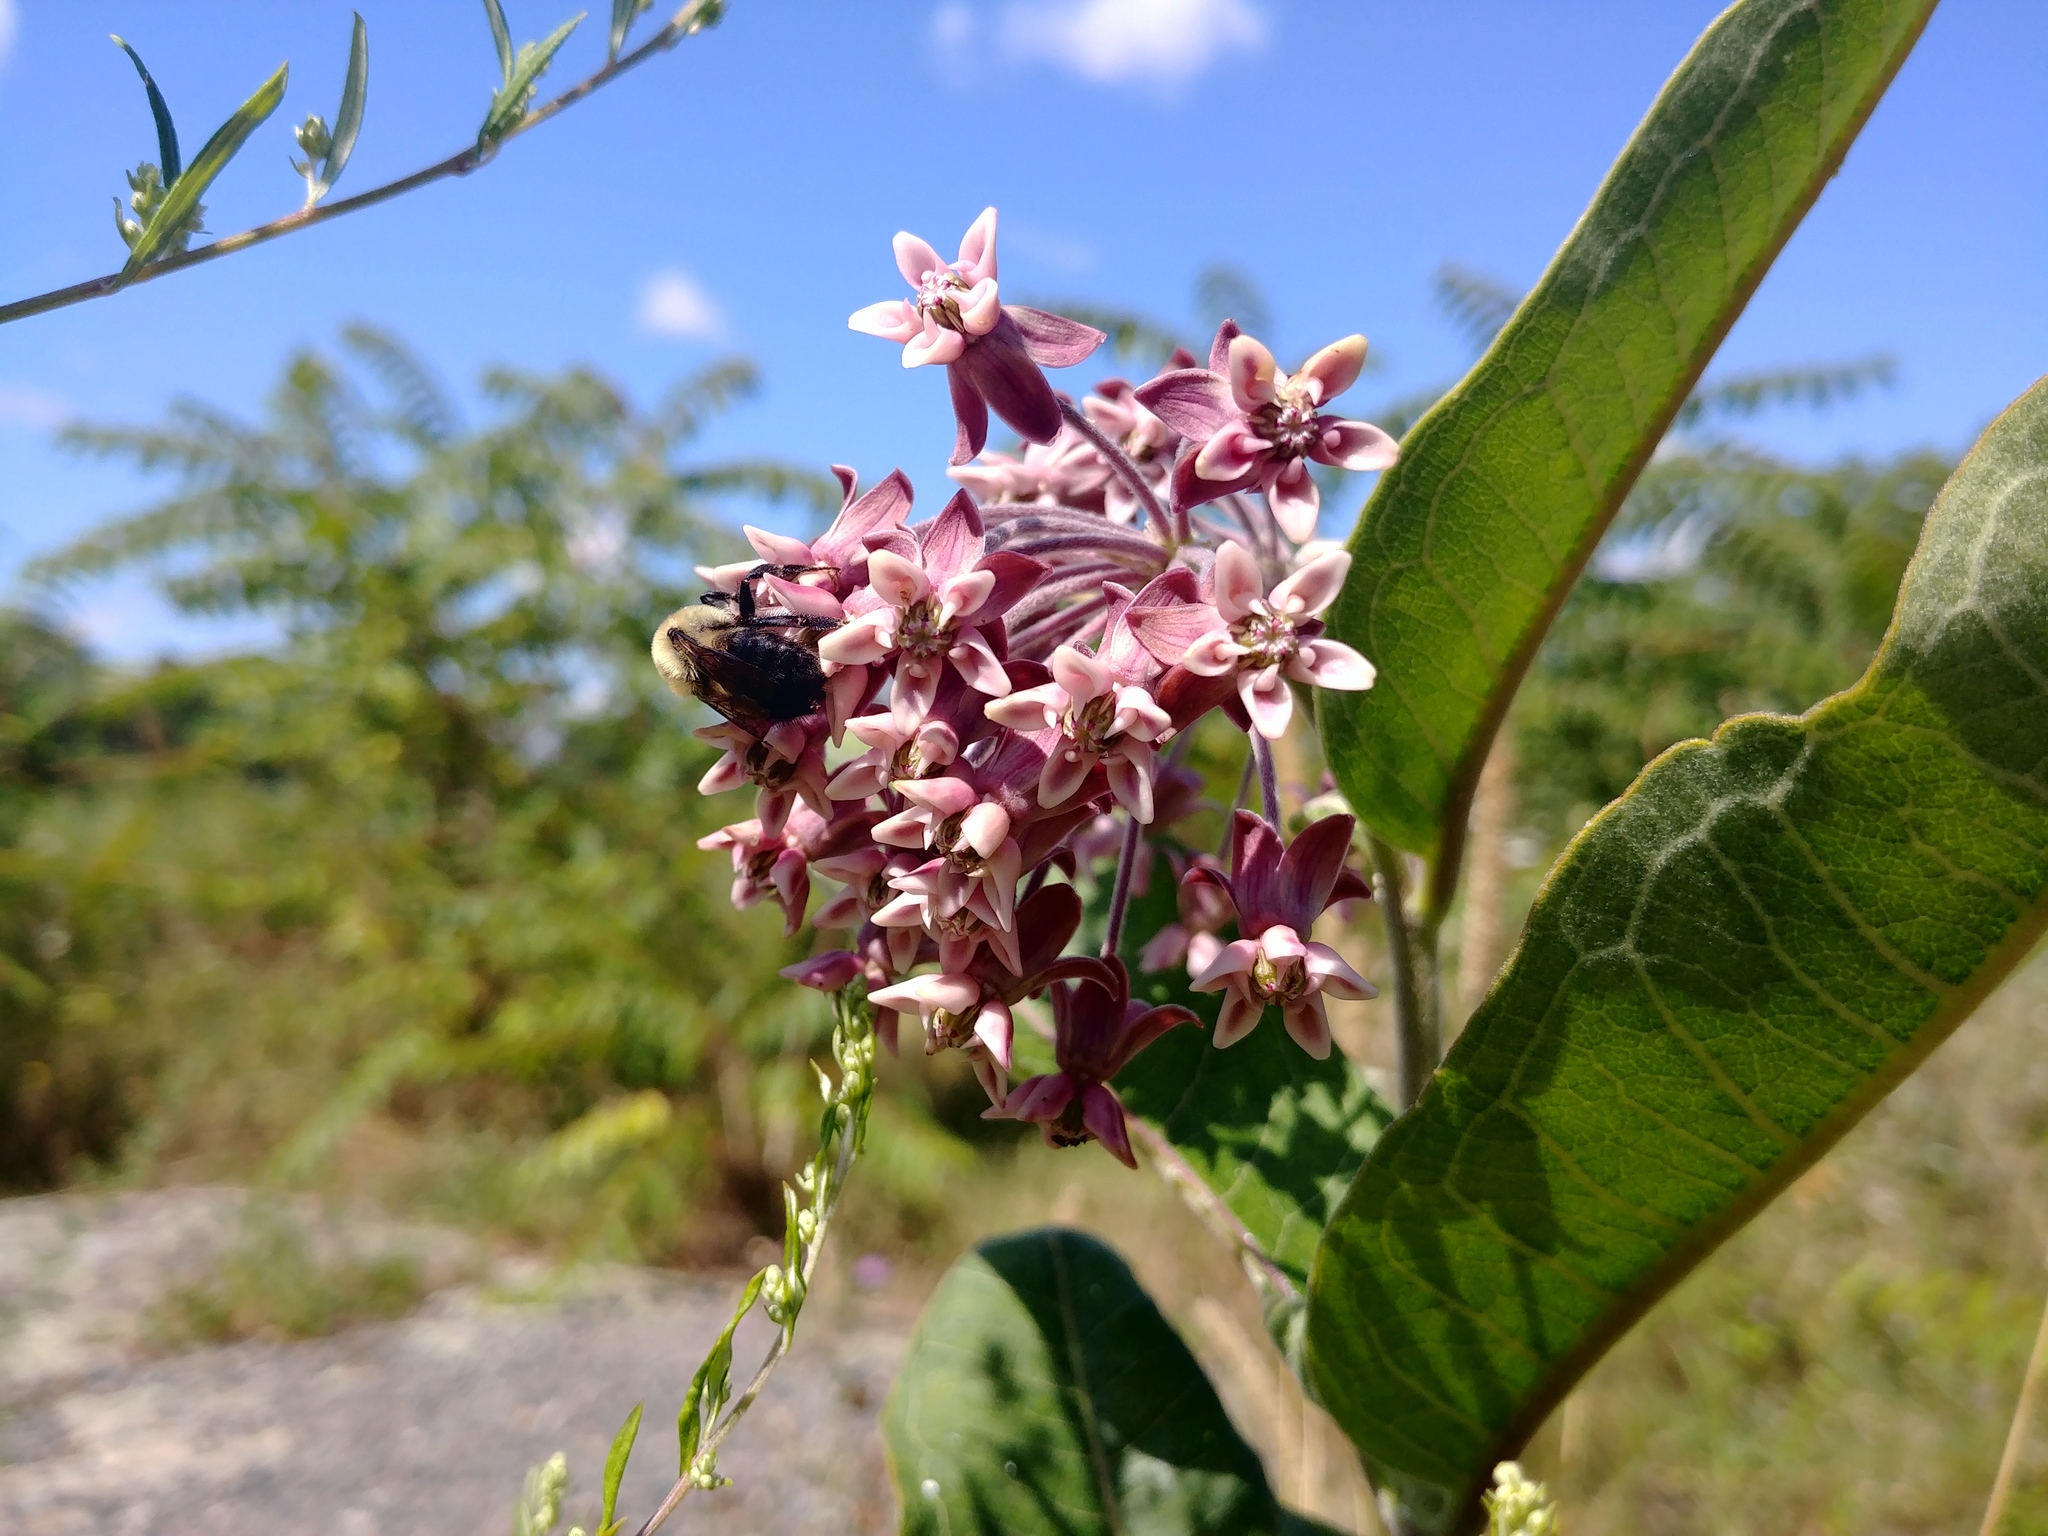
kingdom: Plantae
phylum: Tracheophyta
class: Magnoliopsida
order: Gentianales
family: Apocynaceae
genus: Asclepias
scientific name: Asclepias syriaca
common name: Common milkweed
